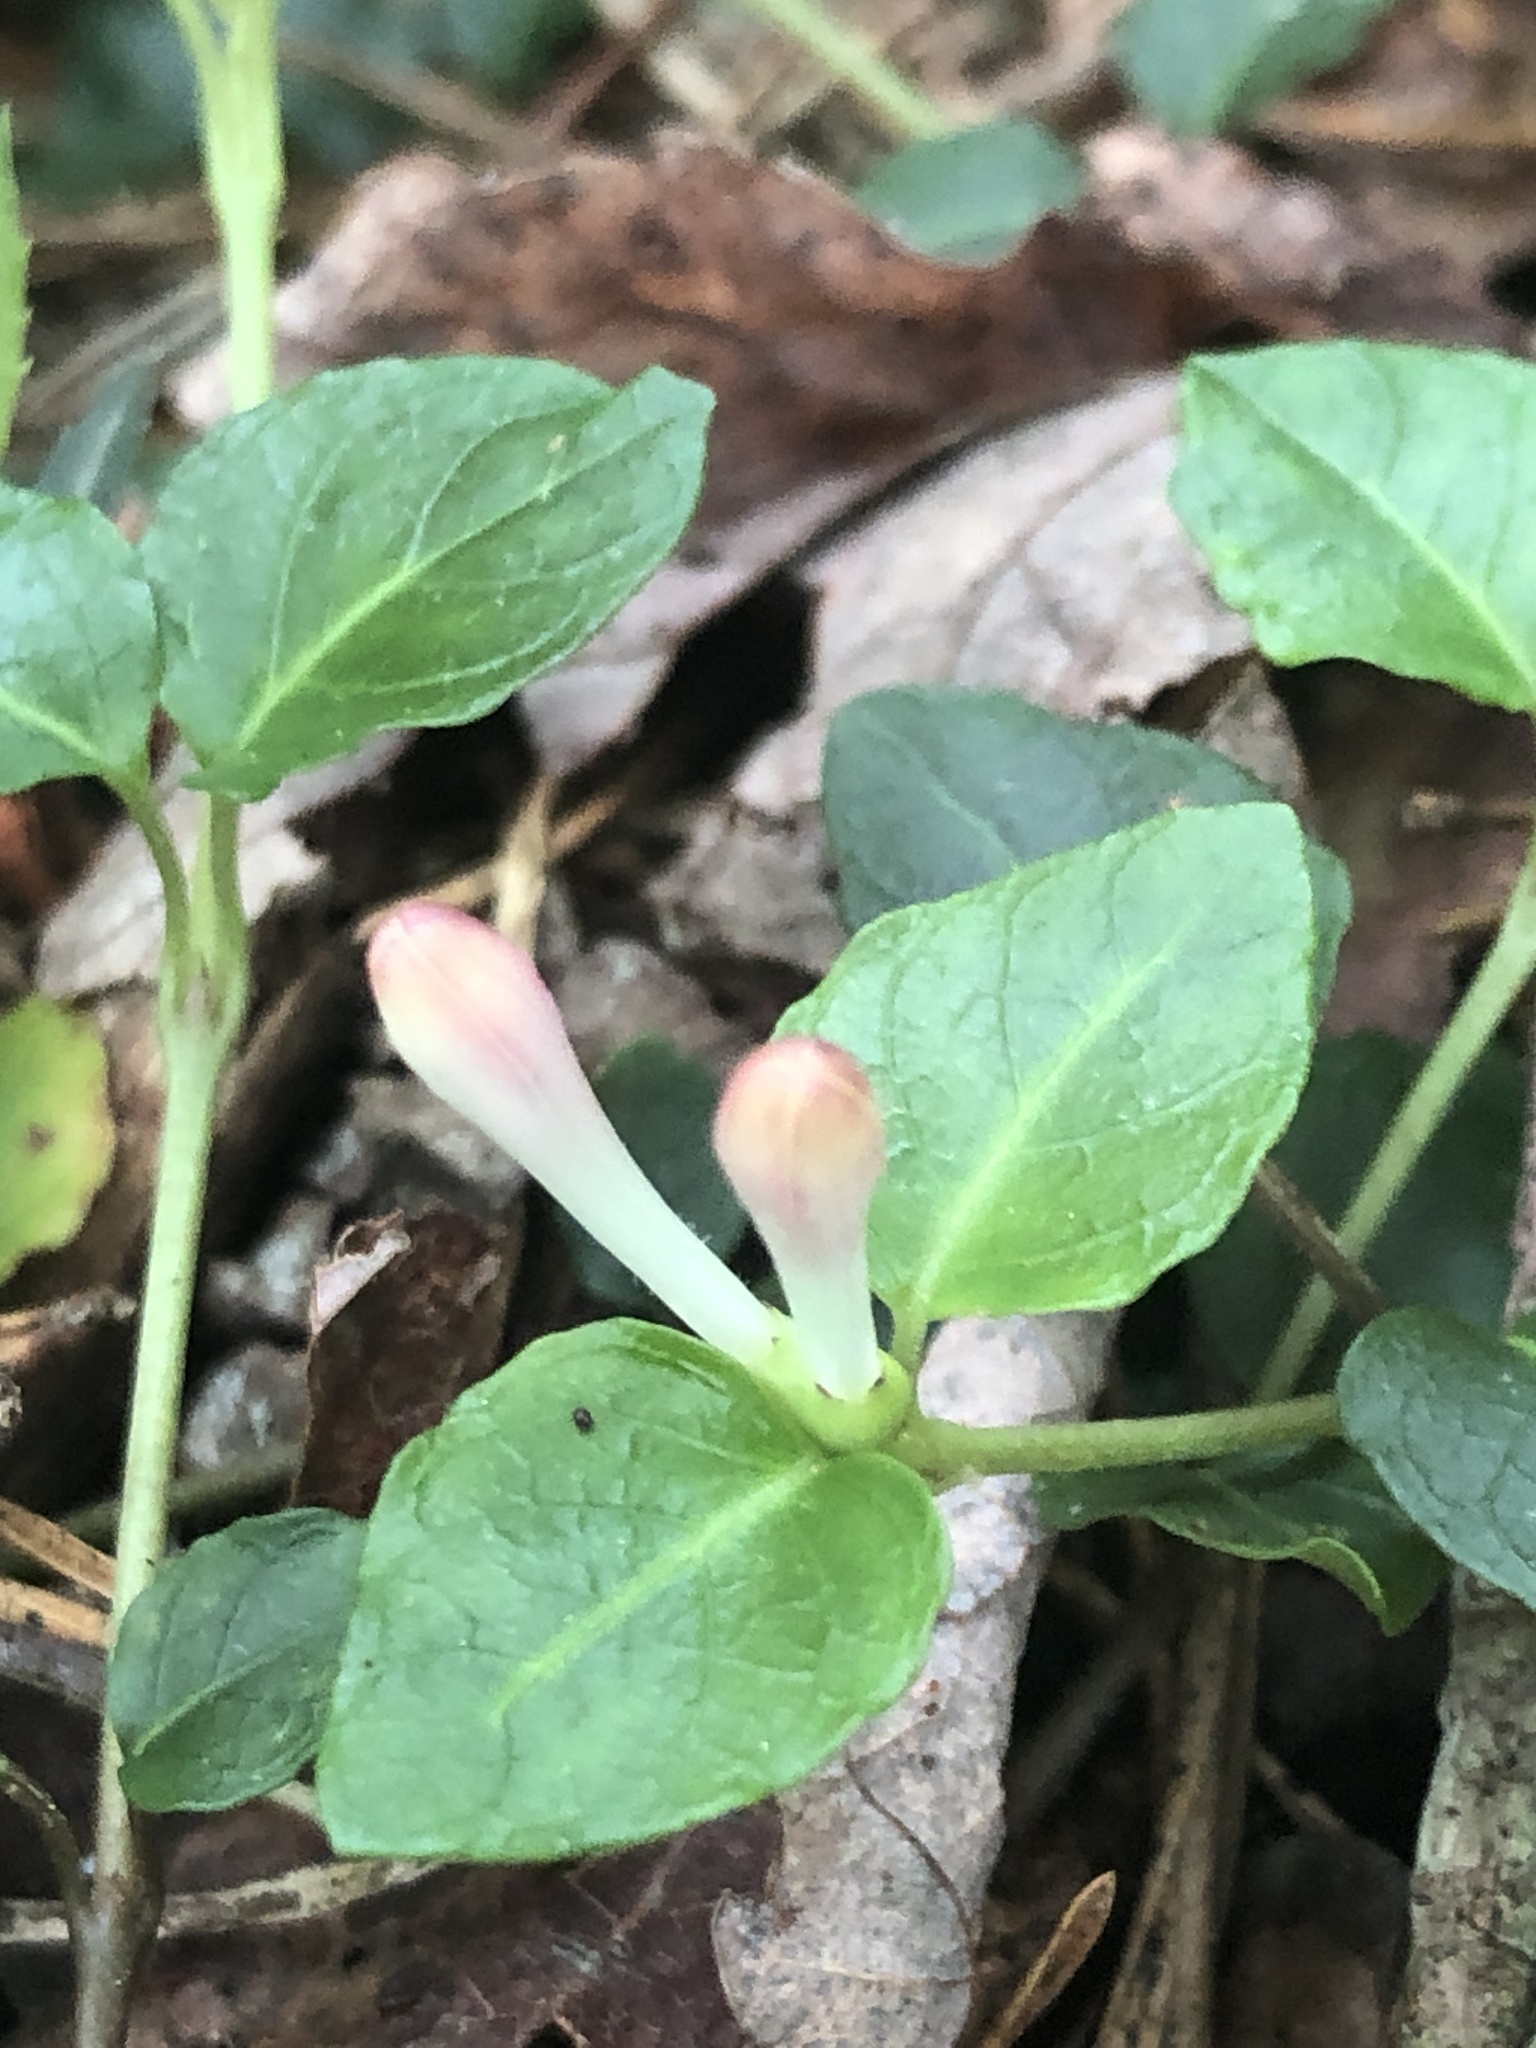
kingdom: Plantae
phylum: Tracheophyta
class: Magnoliopsida
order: Gentianales
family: Rubiaceae
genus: Mitchella
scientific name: Mitchella repens
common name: Partridge-berry
